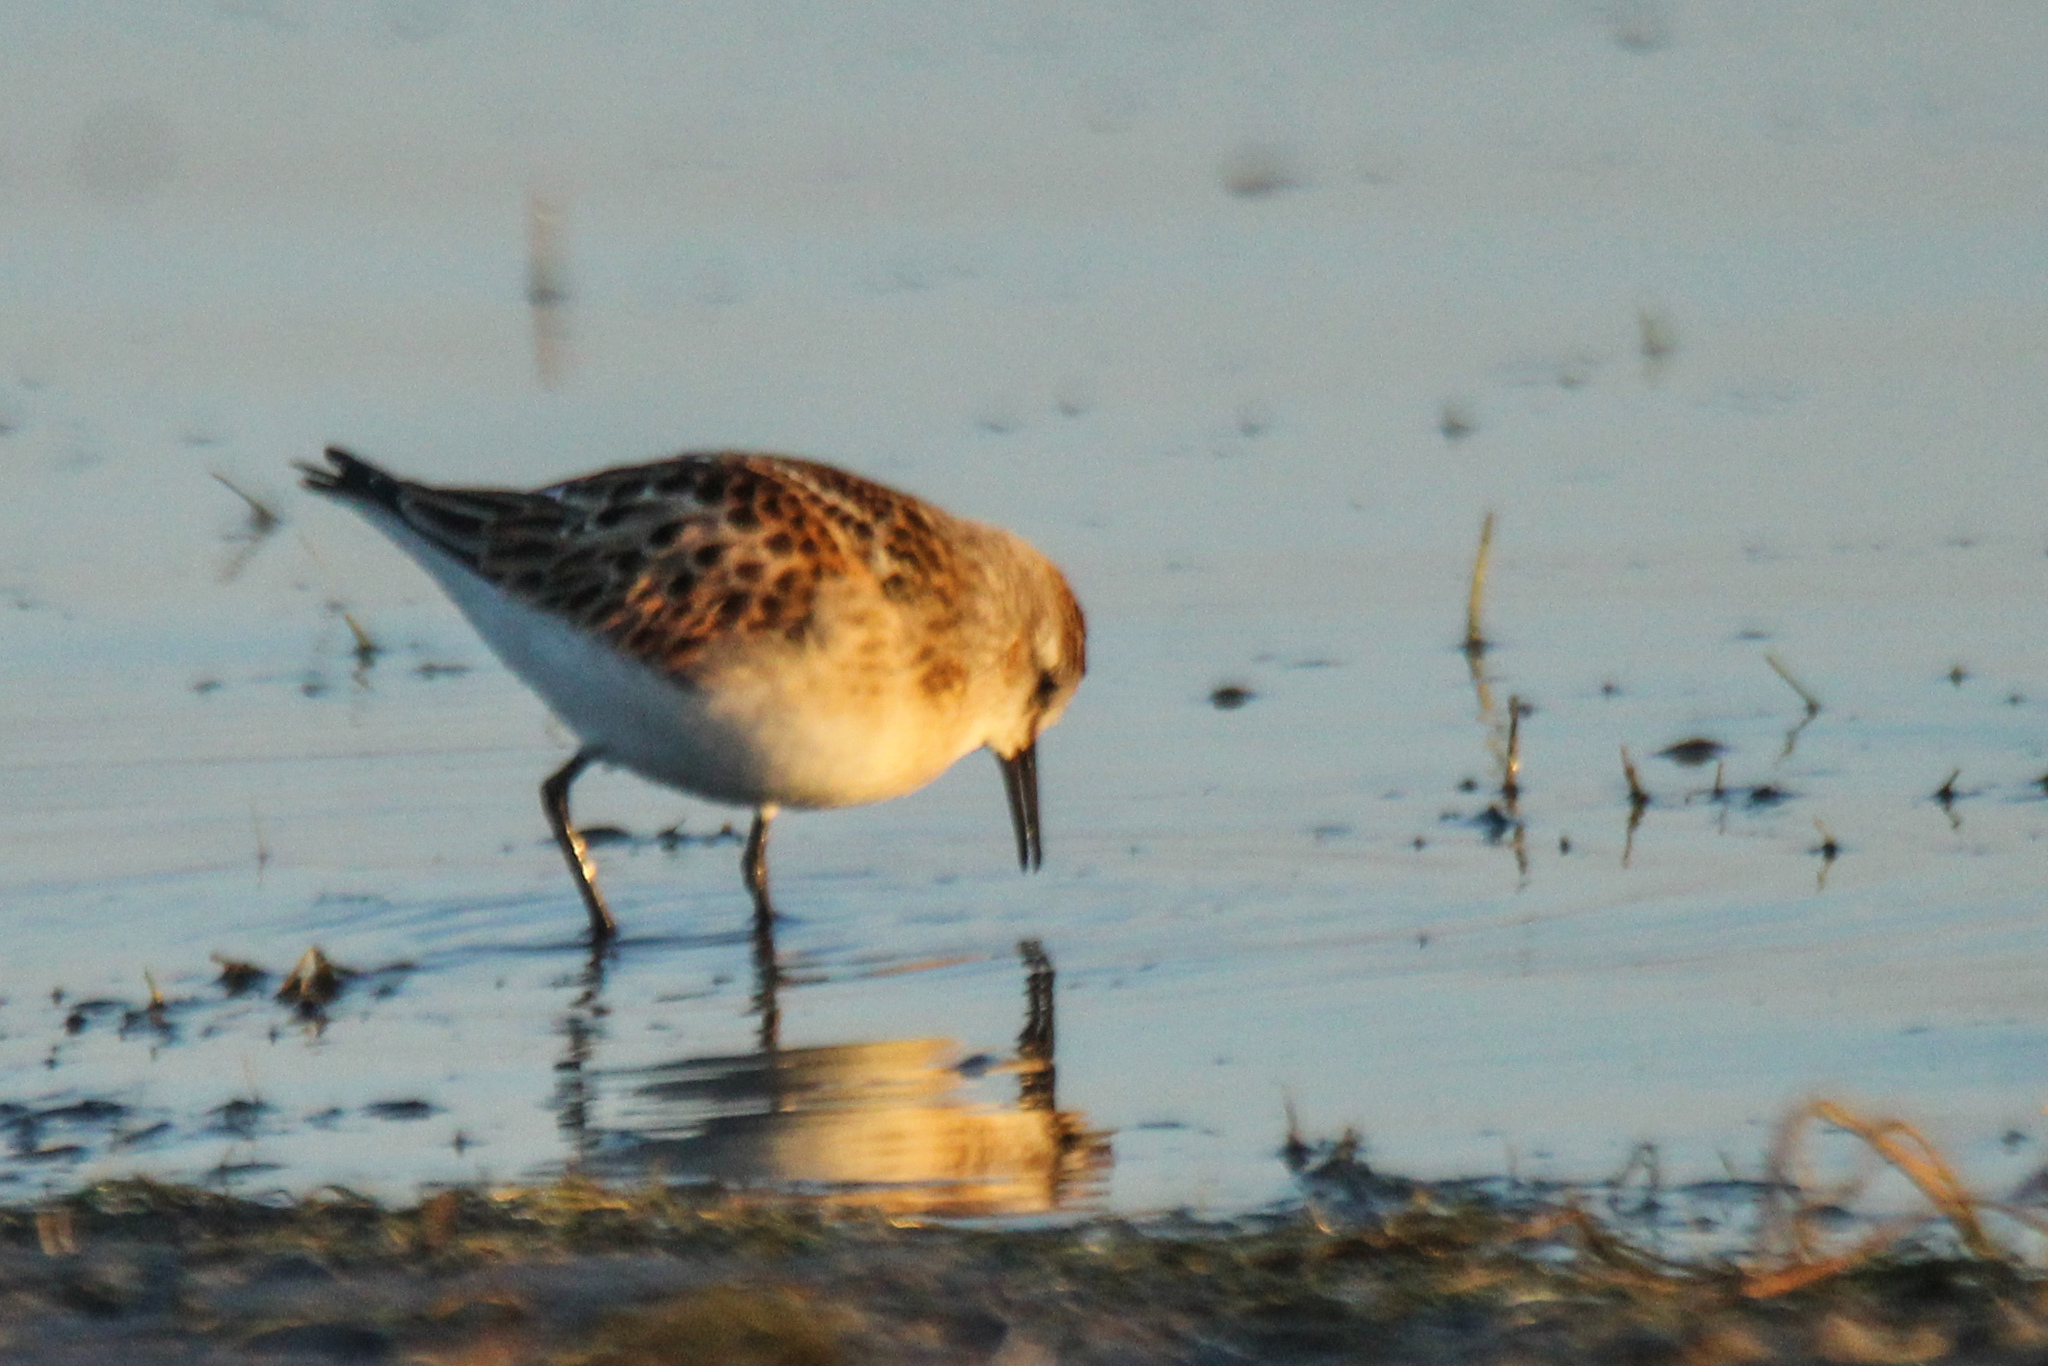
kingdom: Animalia
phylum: Chordata
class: Aves
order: Charadriiformes
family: Scolopacidae
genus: Calidris
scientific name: Calidris minuta
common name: Little stint
